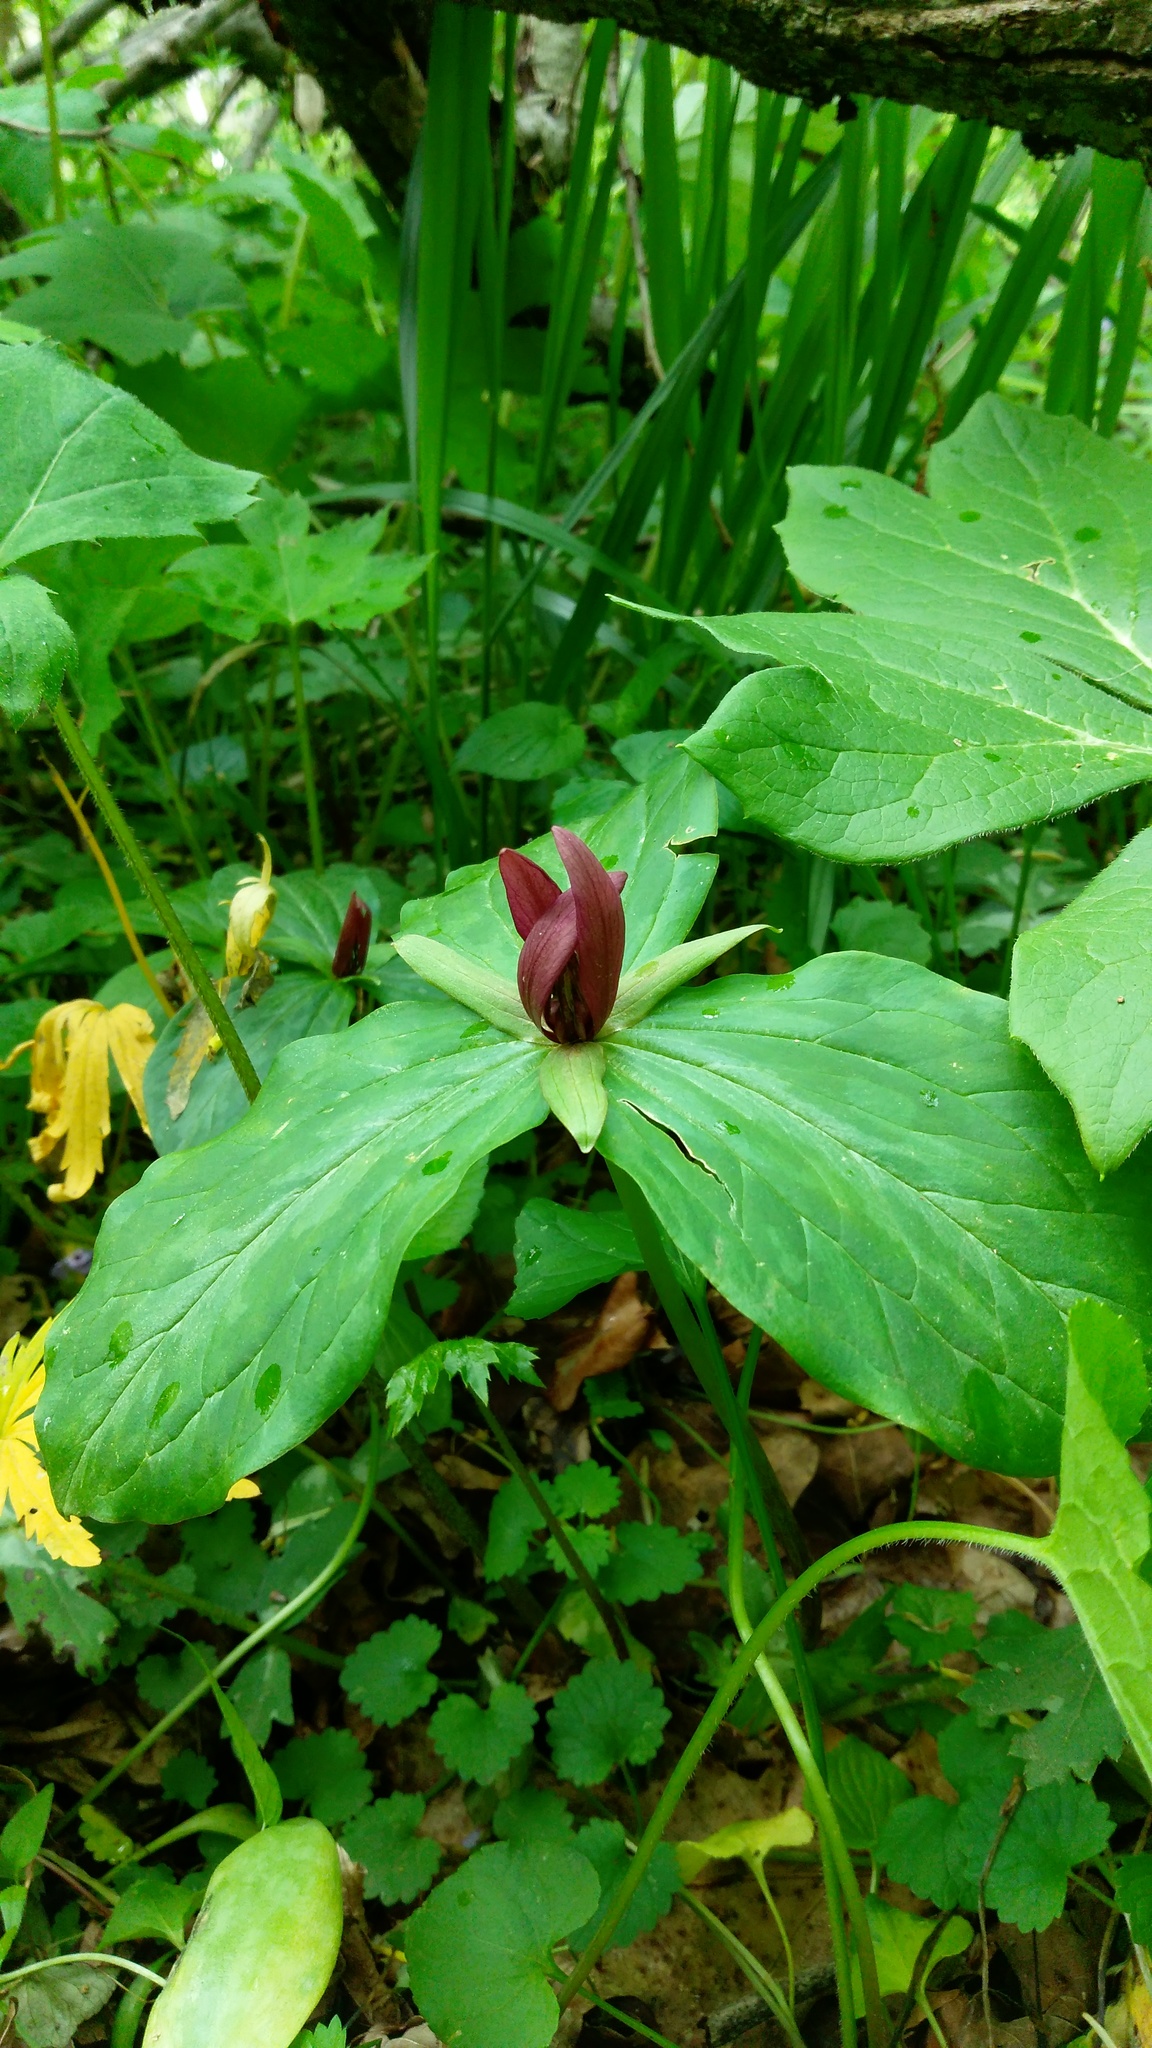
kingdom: Plantae
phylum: Tracheophyta
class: Liliopsida
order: Liliales
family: Melanthiaceae
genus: Trillium
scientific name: Trillium sessile
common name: Sessile trillium
